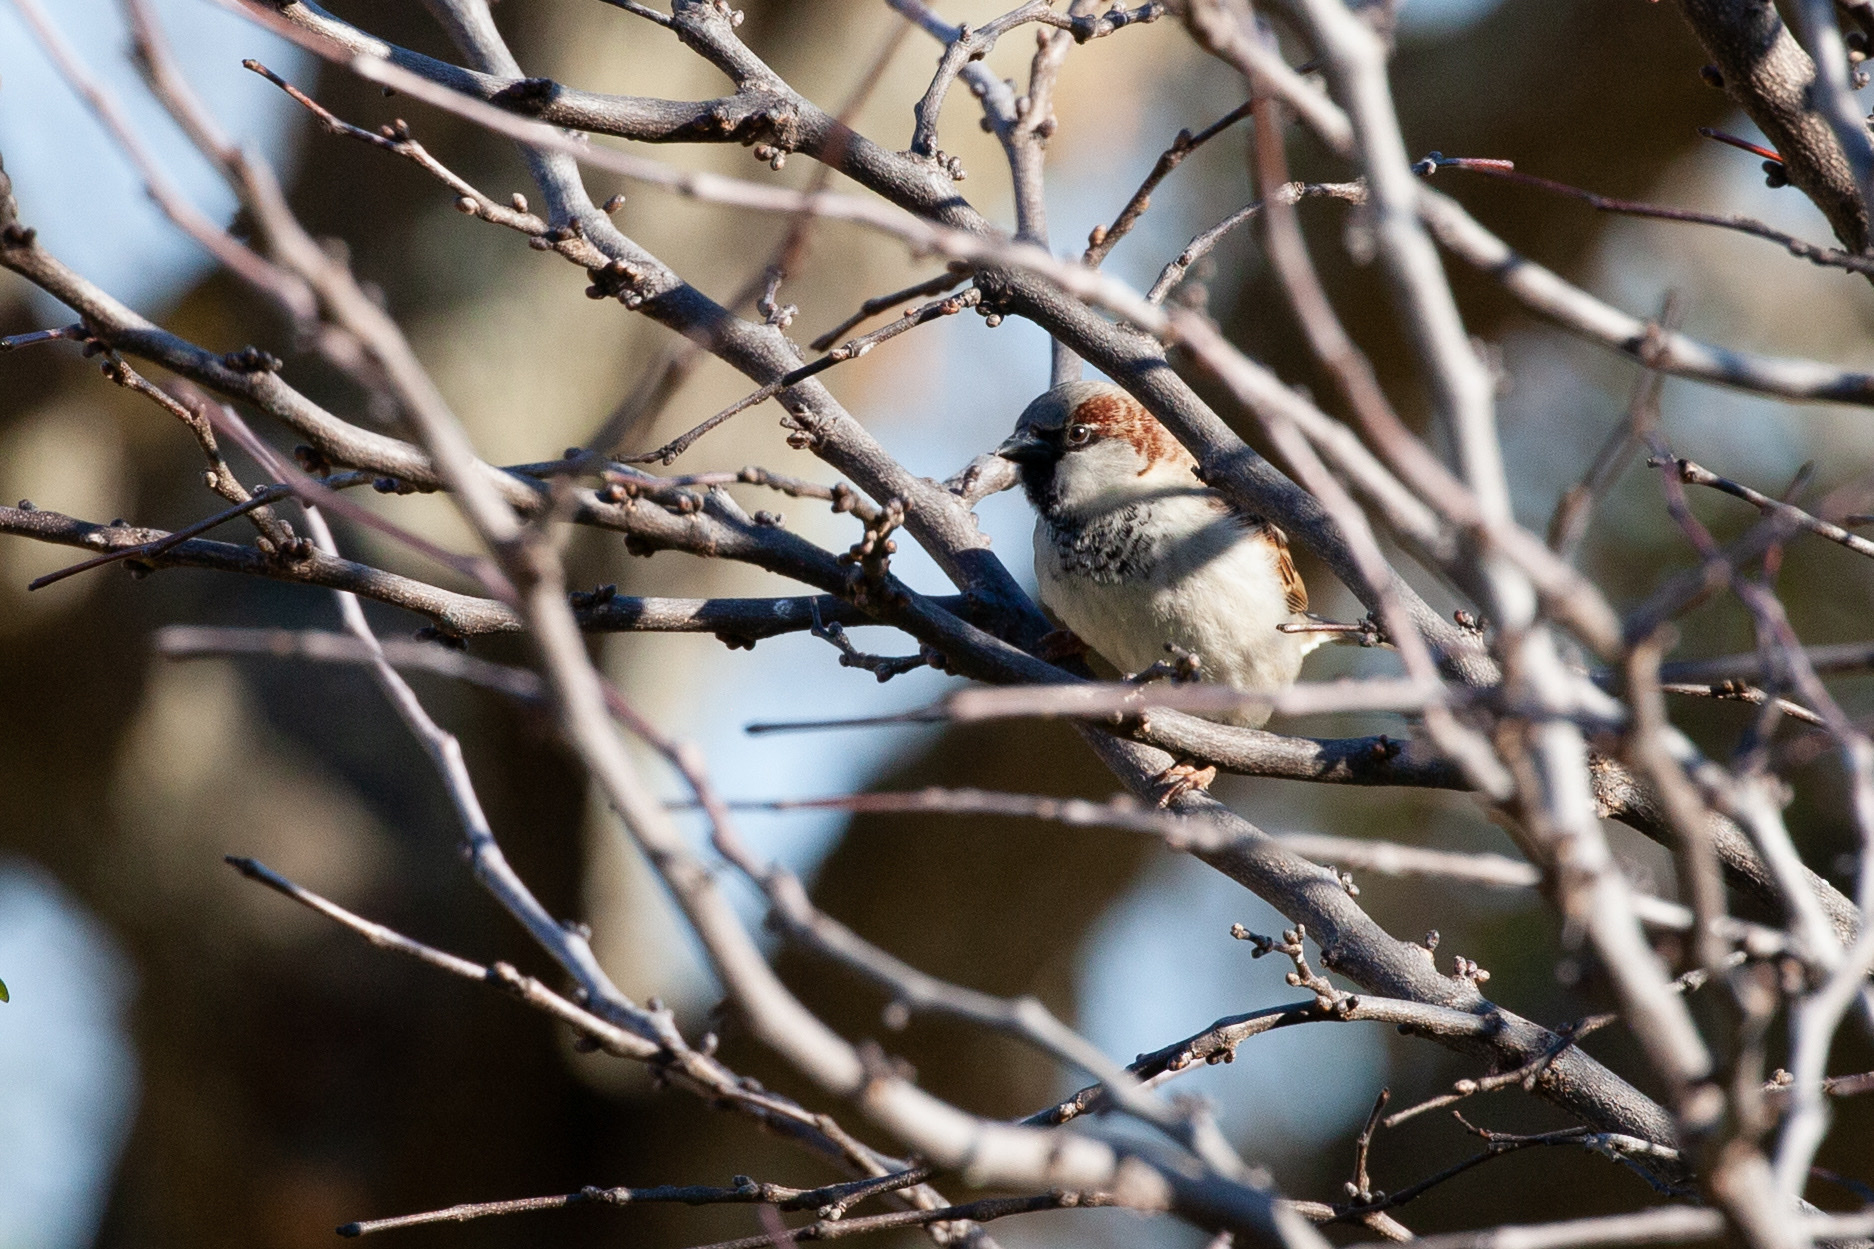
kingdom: Animalia
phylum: Chordata
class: Aves
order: Passeriformes
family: Passeridae
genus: Passer
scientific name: Passer domesticus
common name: House sparrow
